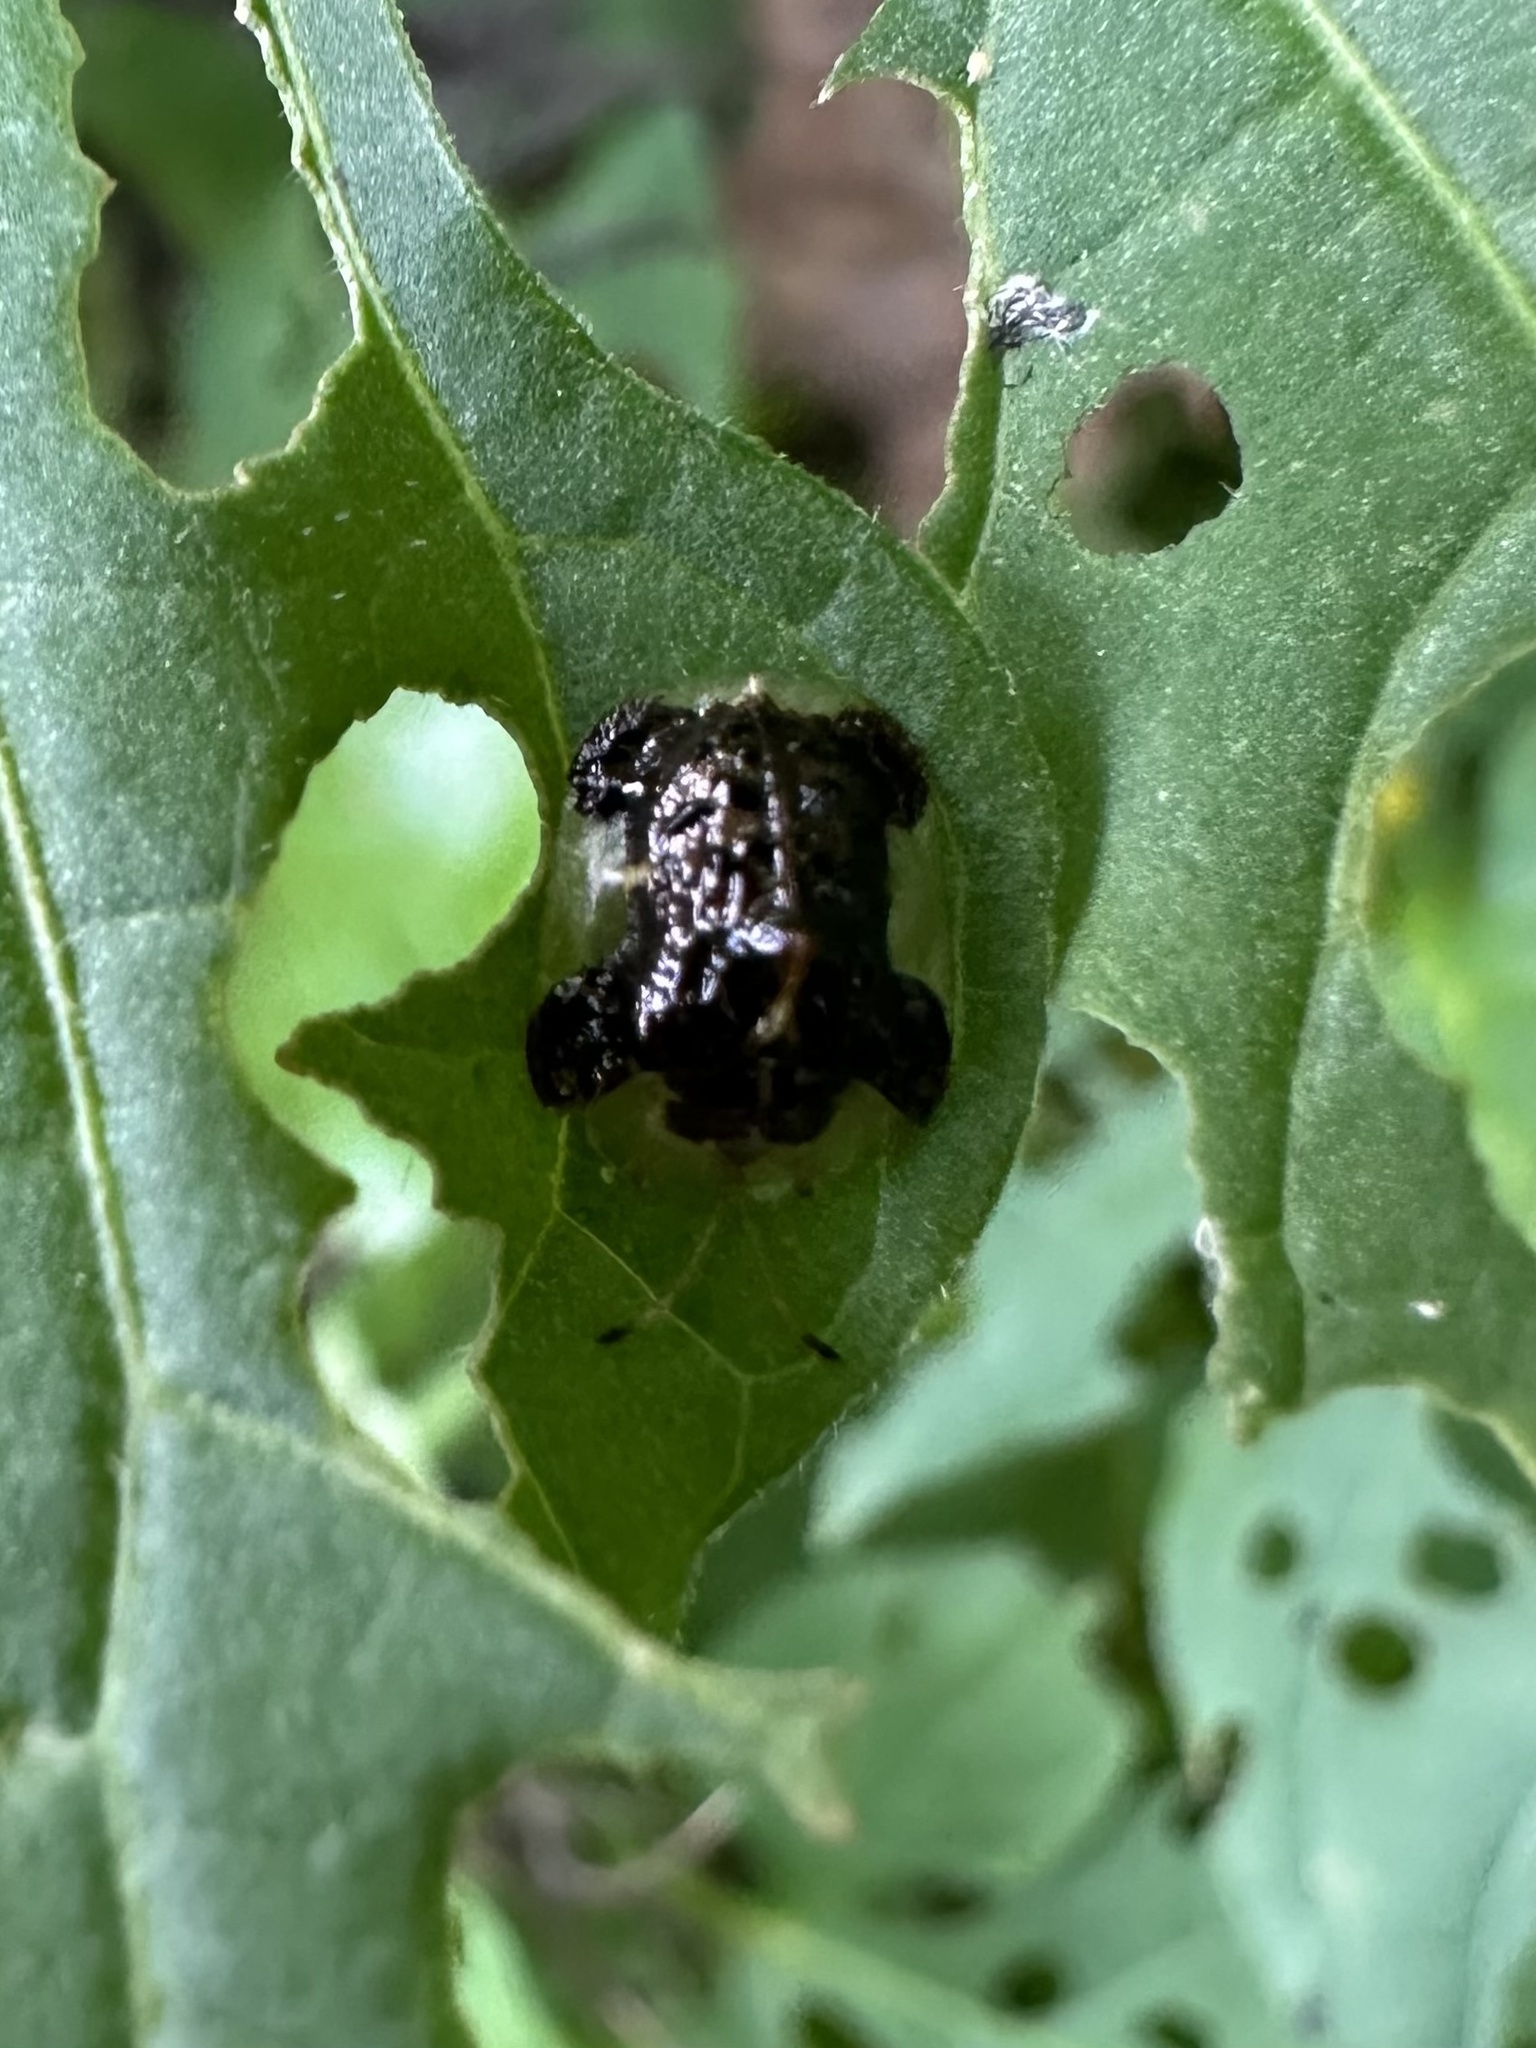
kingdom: Animalia
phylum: Arthropoda
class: Insecta
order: Coleoptera
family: Chrysomelidae
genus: Helocassis
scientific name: Helocassis clavata
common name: Clavate tortoise beetle
